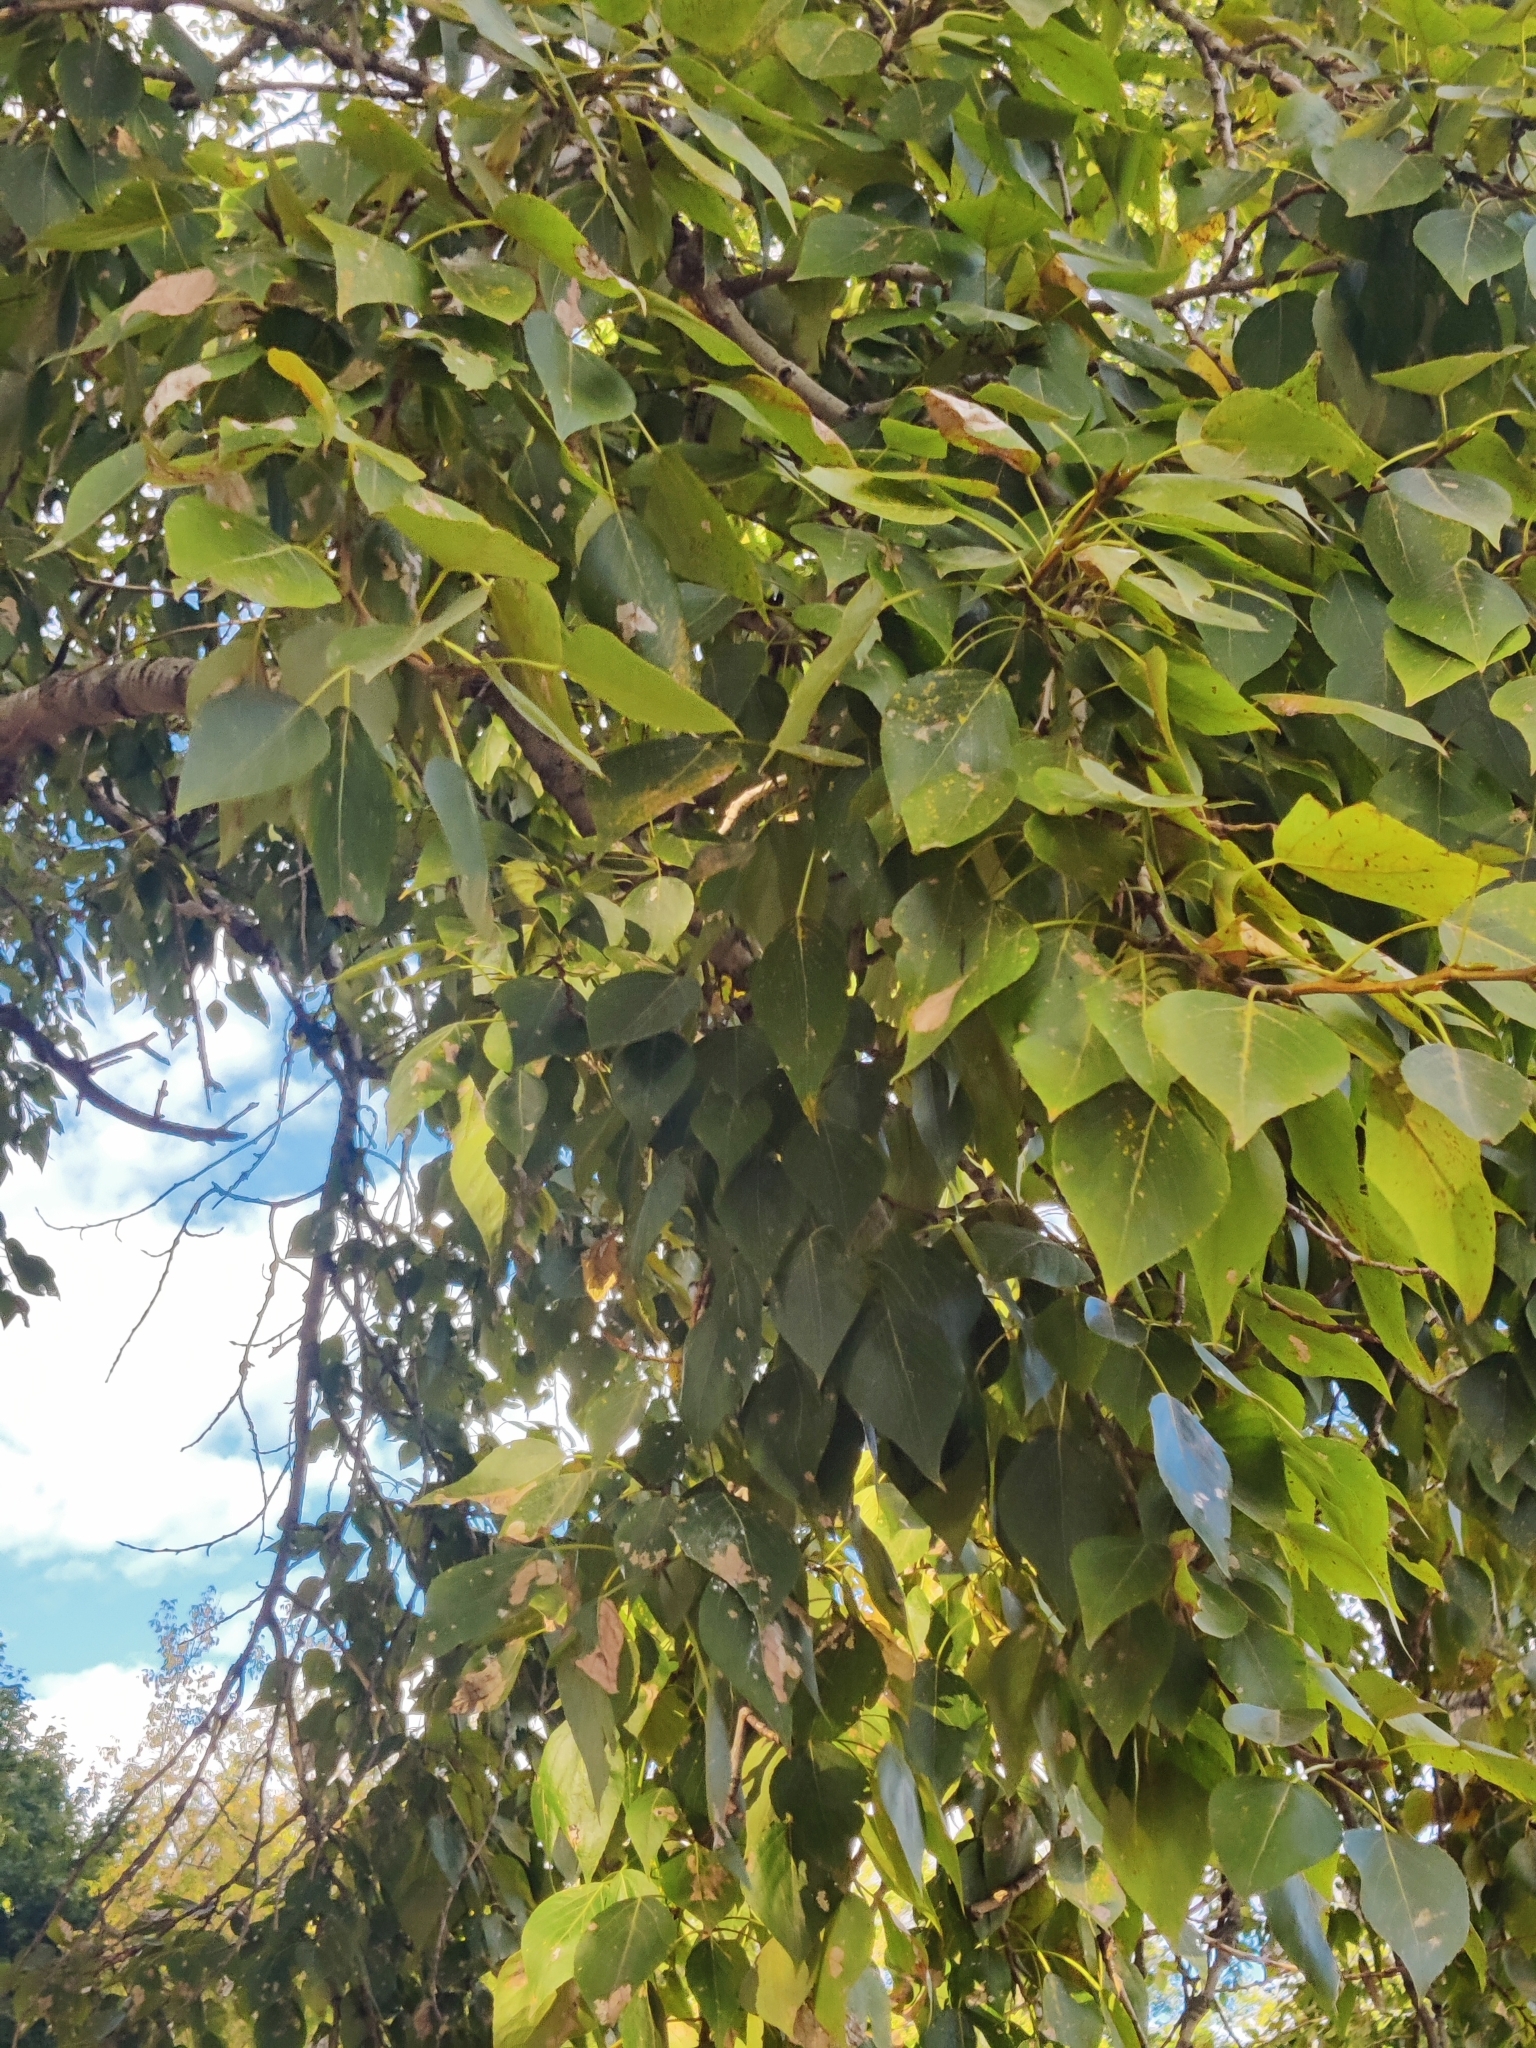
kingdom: Plantae
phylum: Tracheophyta
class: Magnoliopsida
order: Malpighiales
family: Salicaceae
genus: Populus
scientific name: Populus sibirica
